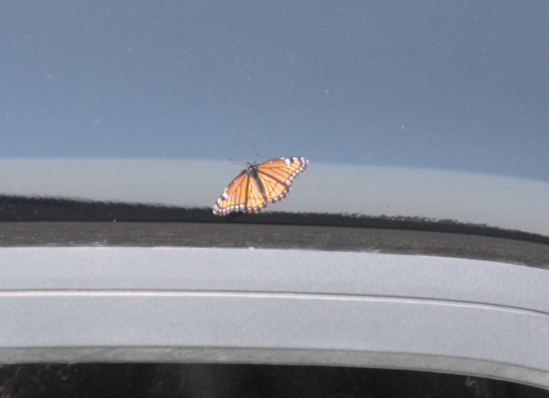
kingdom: Animalia
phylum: Arthropoda
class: Insecta
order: Lepidoptera
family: Nymphalidae
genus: Limenitis
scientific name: Limenitis archippus
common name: Viceroy
